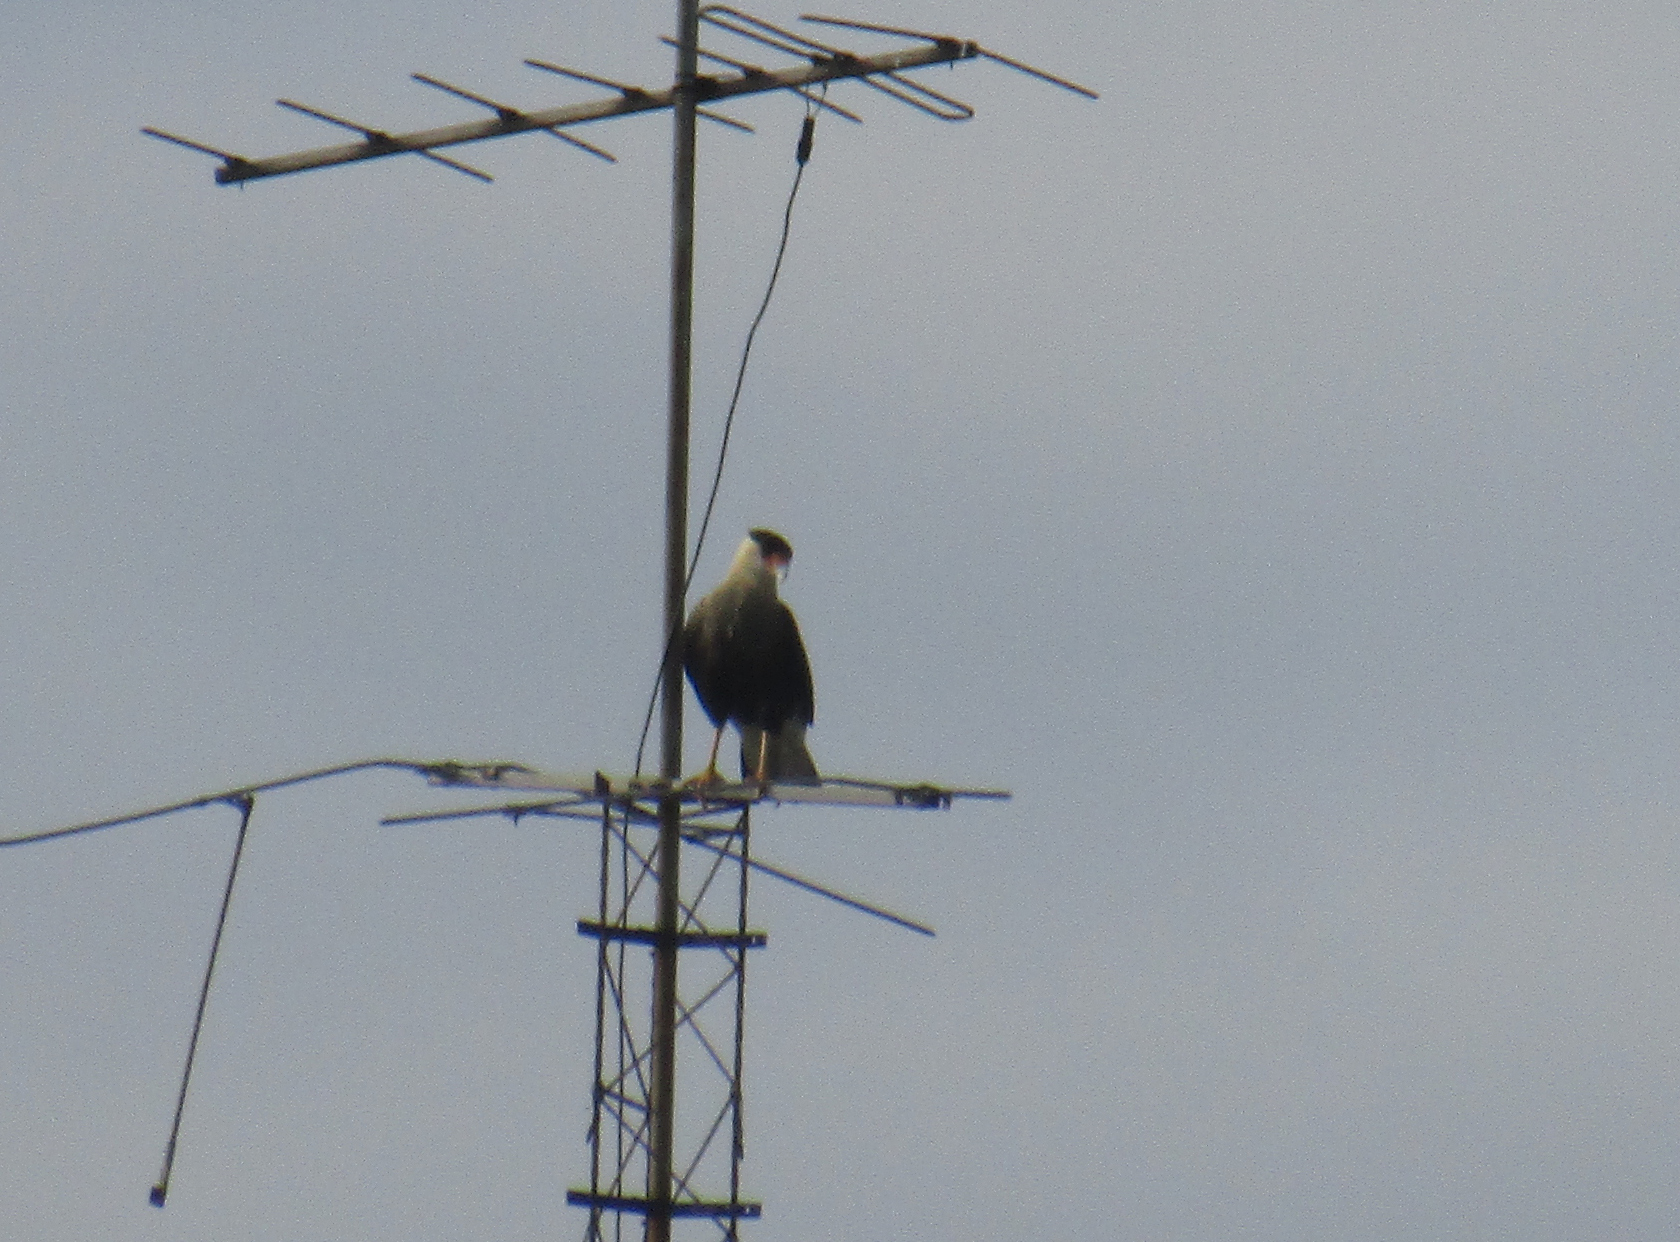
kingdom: Animalia
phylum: Chordata
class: Aves
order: Falconiformes
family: Falconidae
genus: Caracara
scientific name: Caracara plancus
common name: Southern caracara
